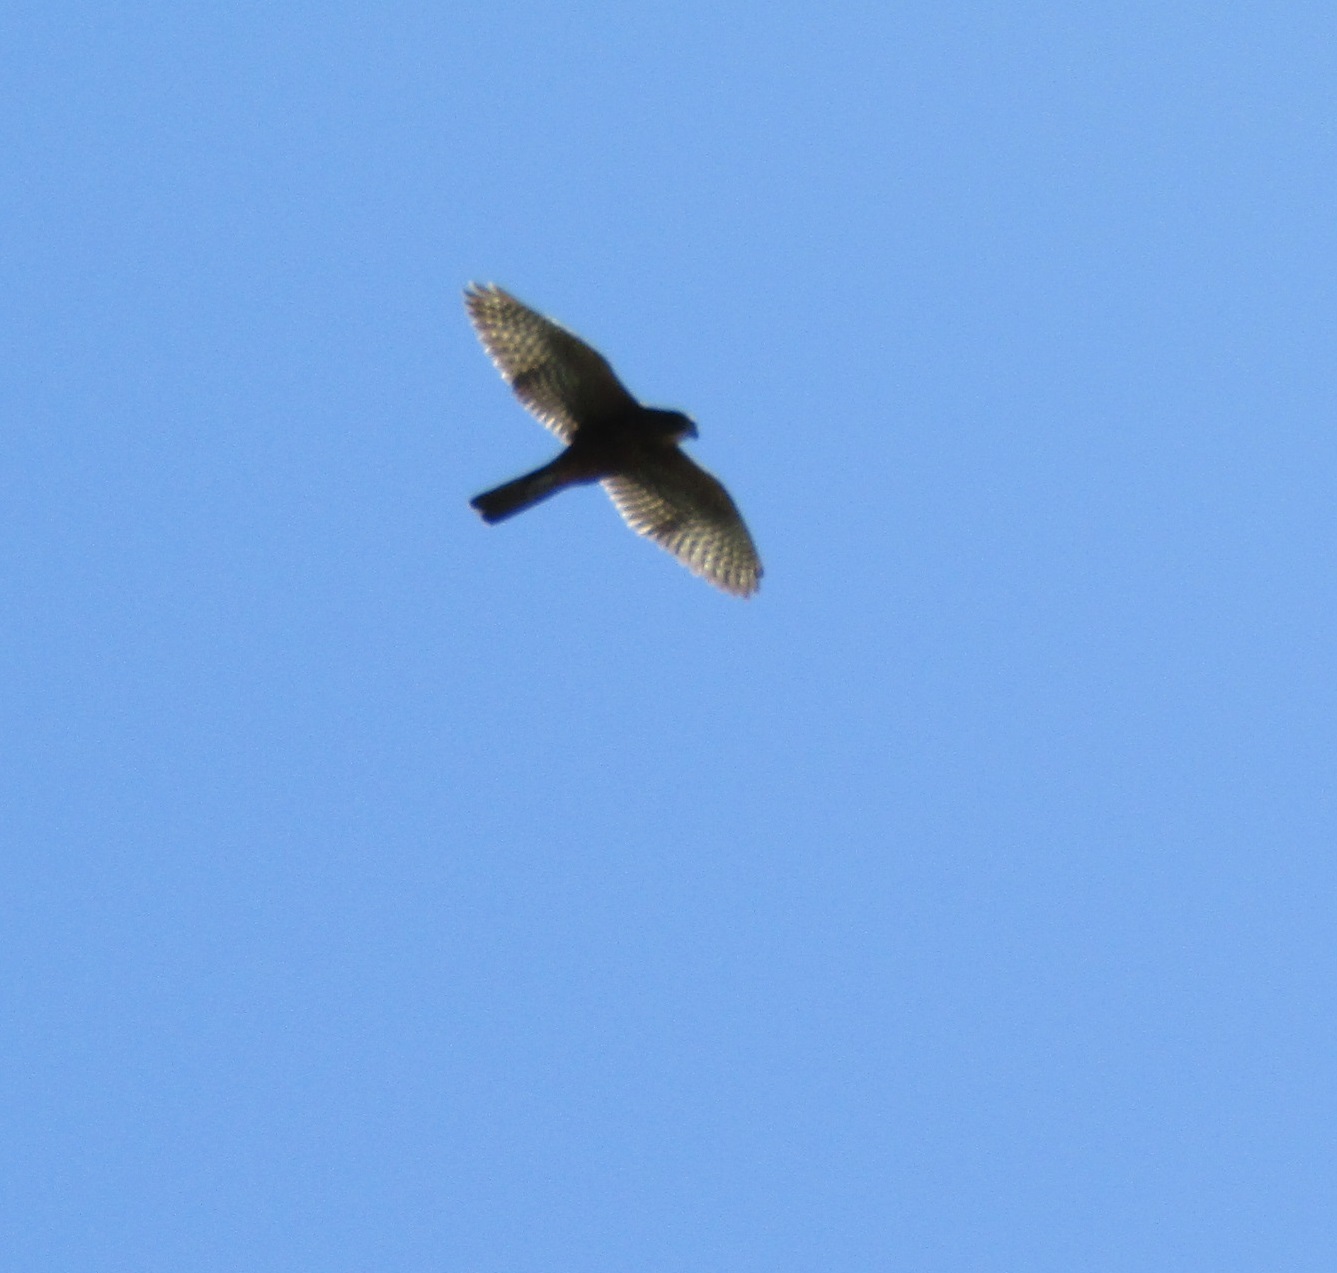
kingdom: Animalia
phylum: Chordata
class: Aves
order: Falconiformes
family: Falconidae
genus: Falco
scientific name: Falco novaeseelandiae
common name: New zealand falcon
